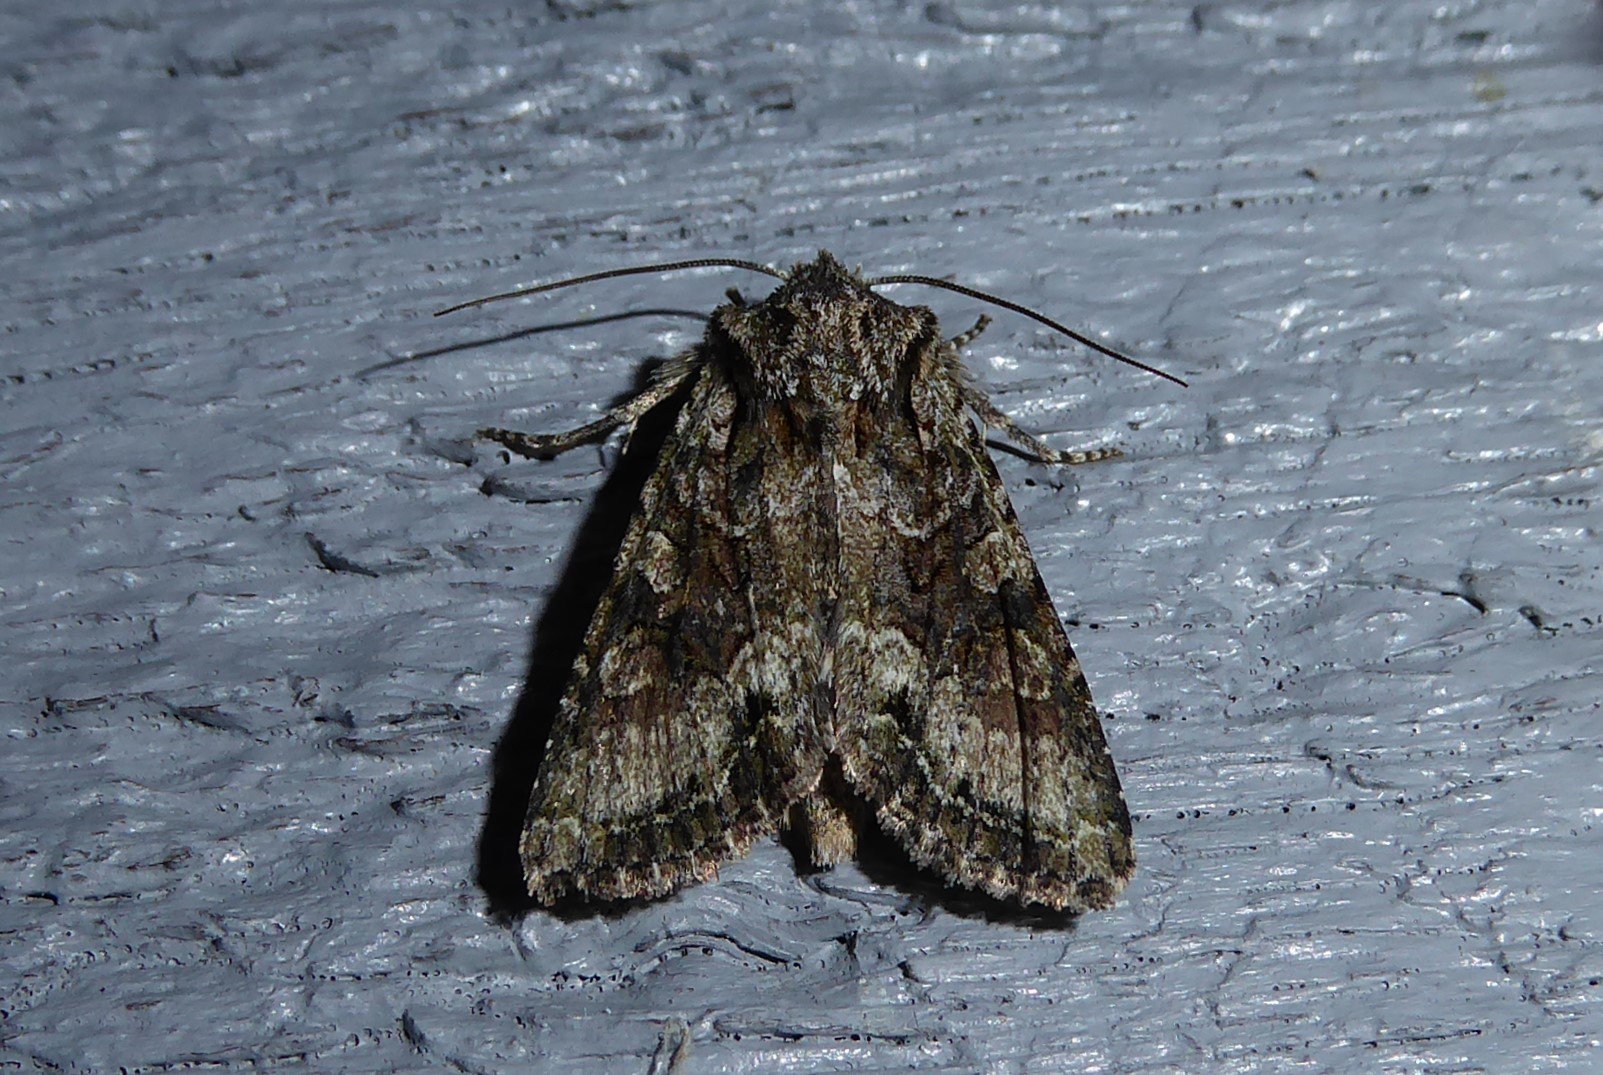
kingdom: Animalia
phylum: Arthropoda
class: Insecta
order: Lepidoptera
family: Noctuidae
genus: Ichneutica
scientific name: Ichneutica mutans
